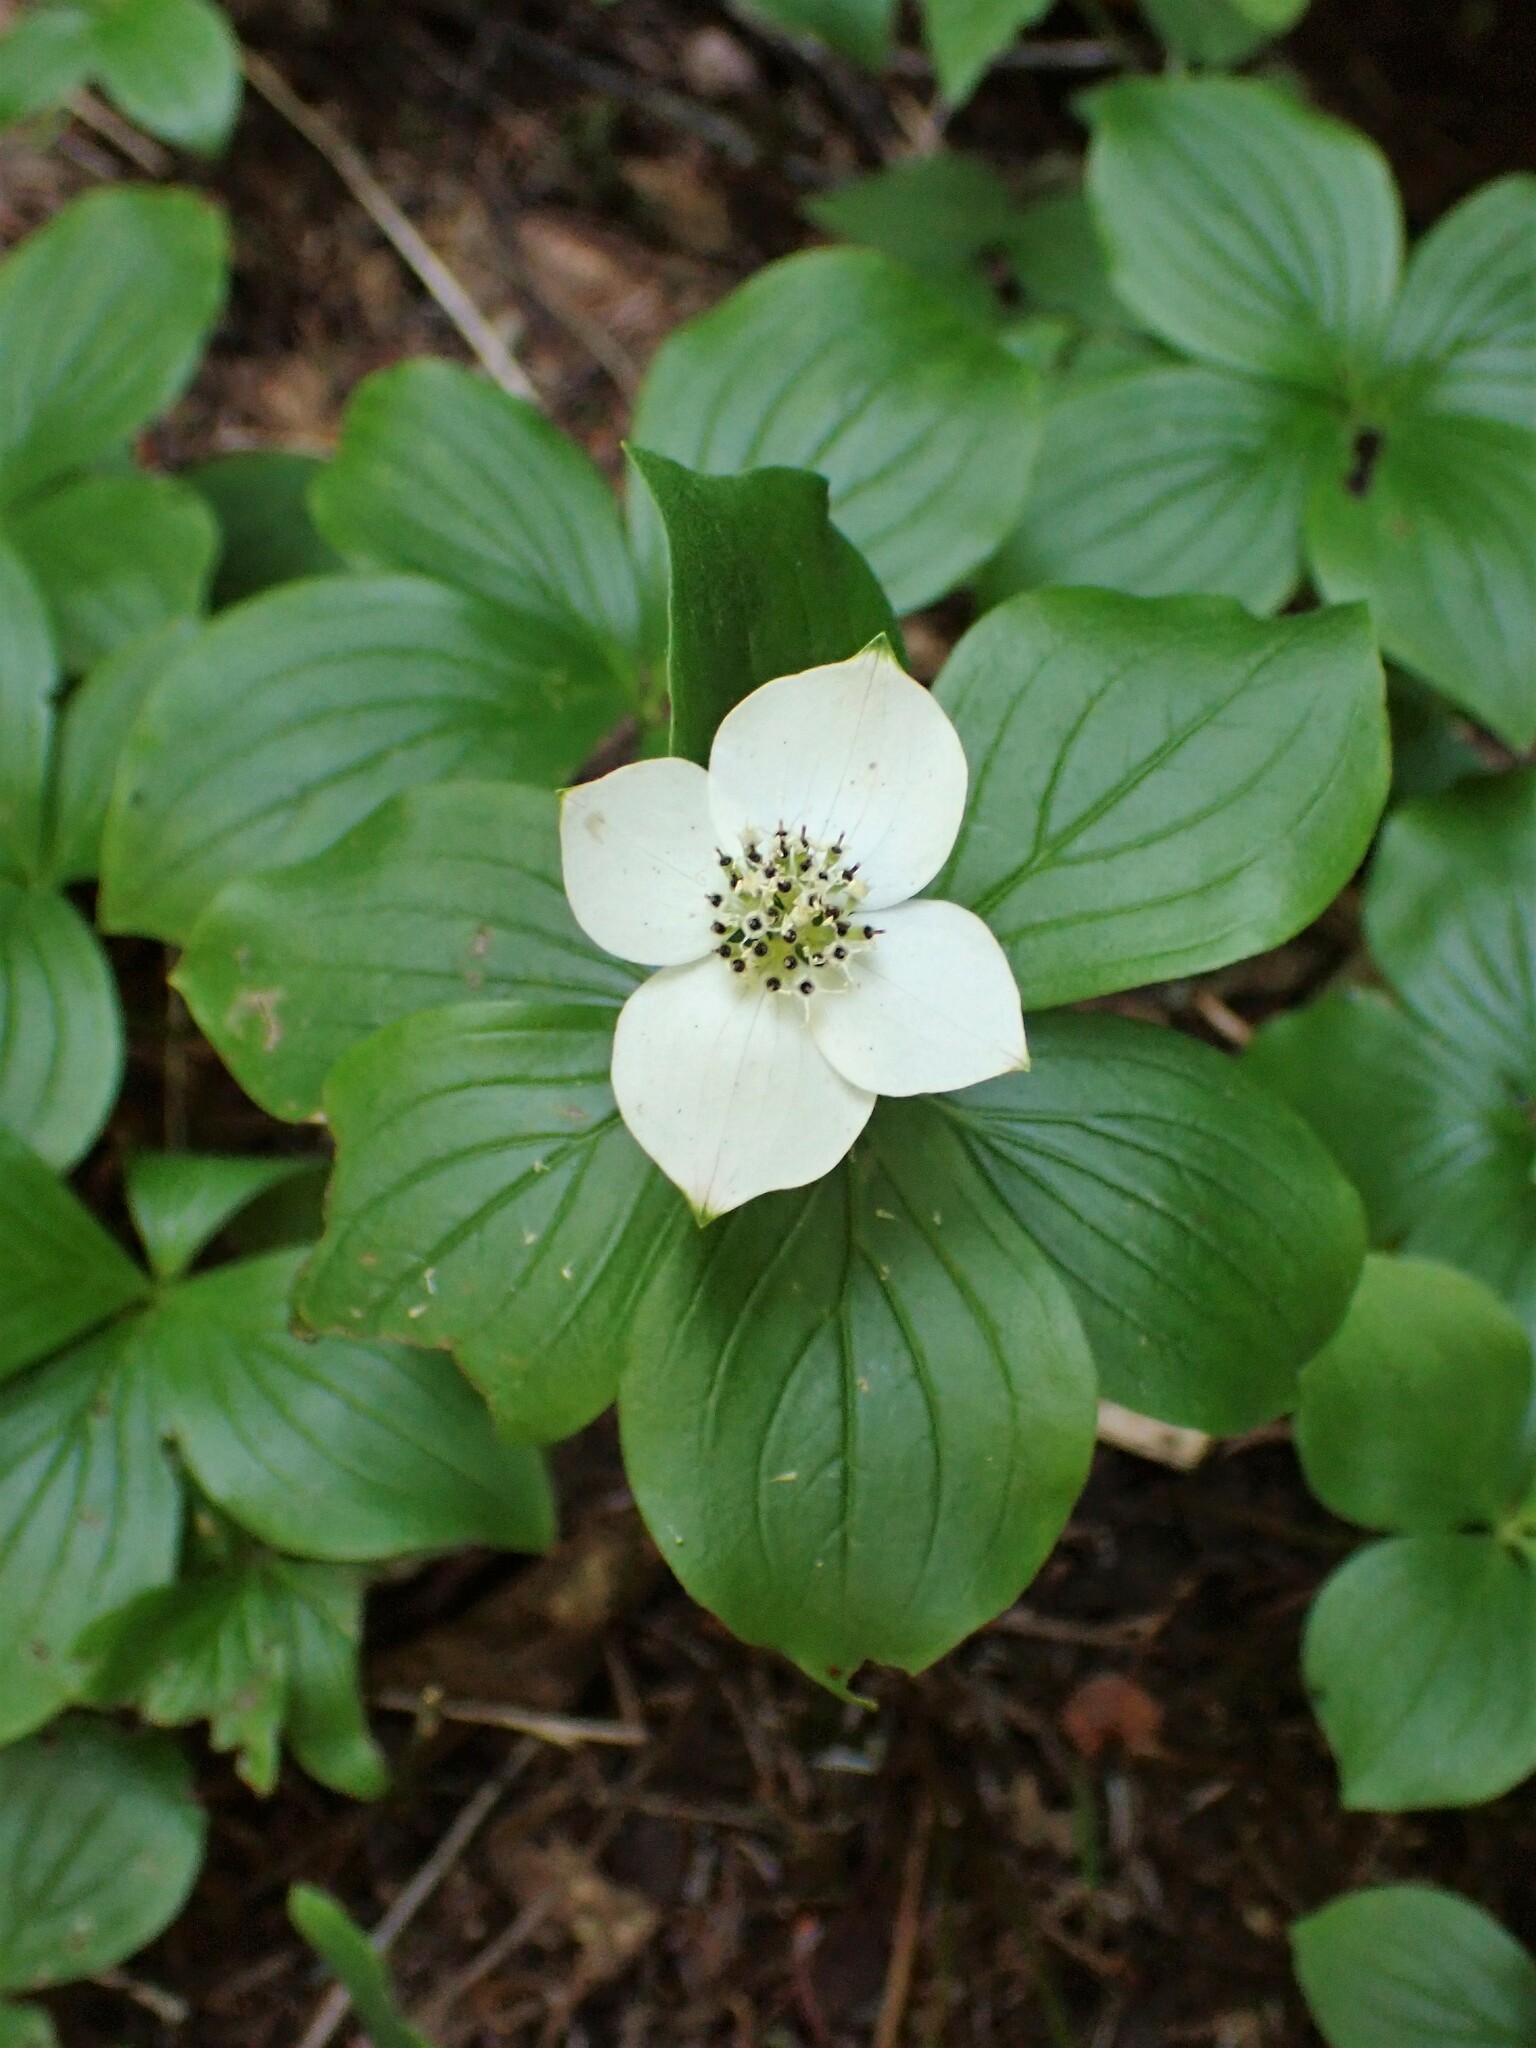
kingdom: Plantae
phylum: Tracheophyta
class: Magnoliopsida
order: Cornales
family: Cornaceae
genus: Cornus
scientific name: Cornus canadensis
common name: Creeping dogwood
